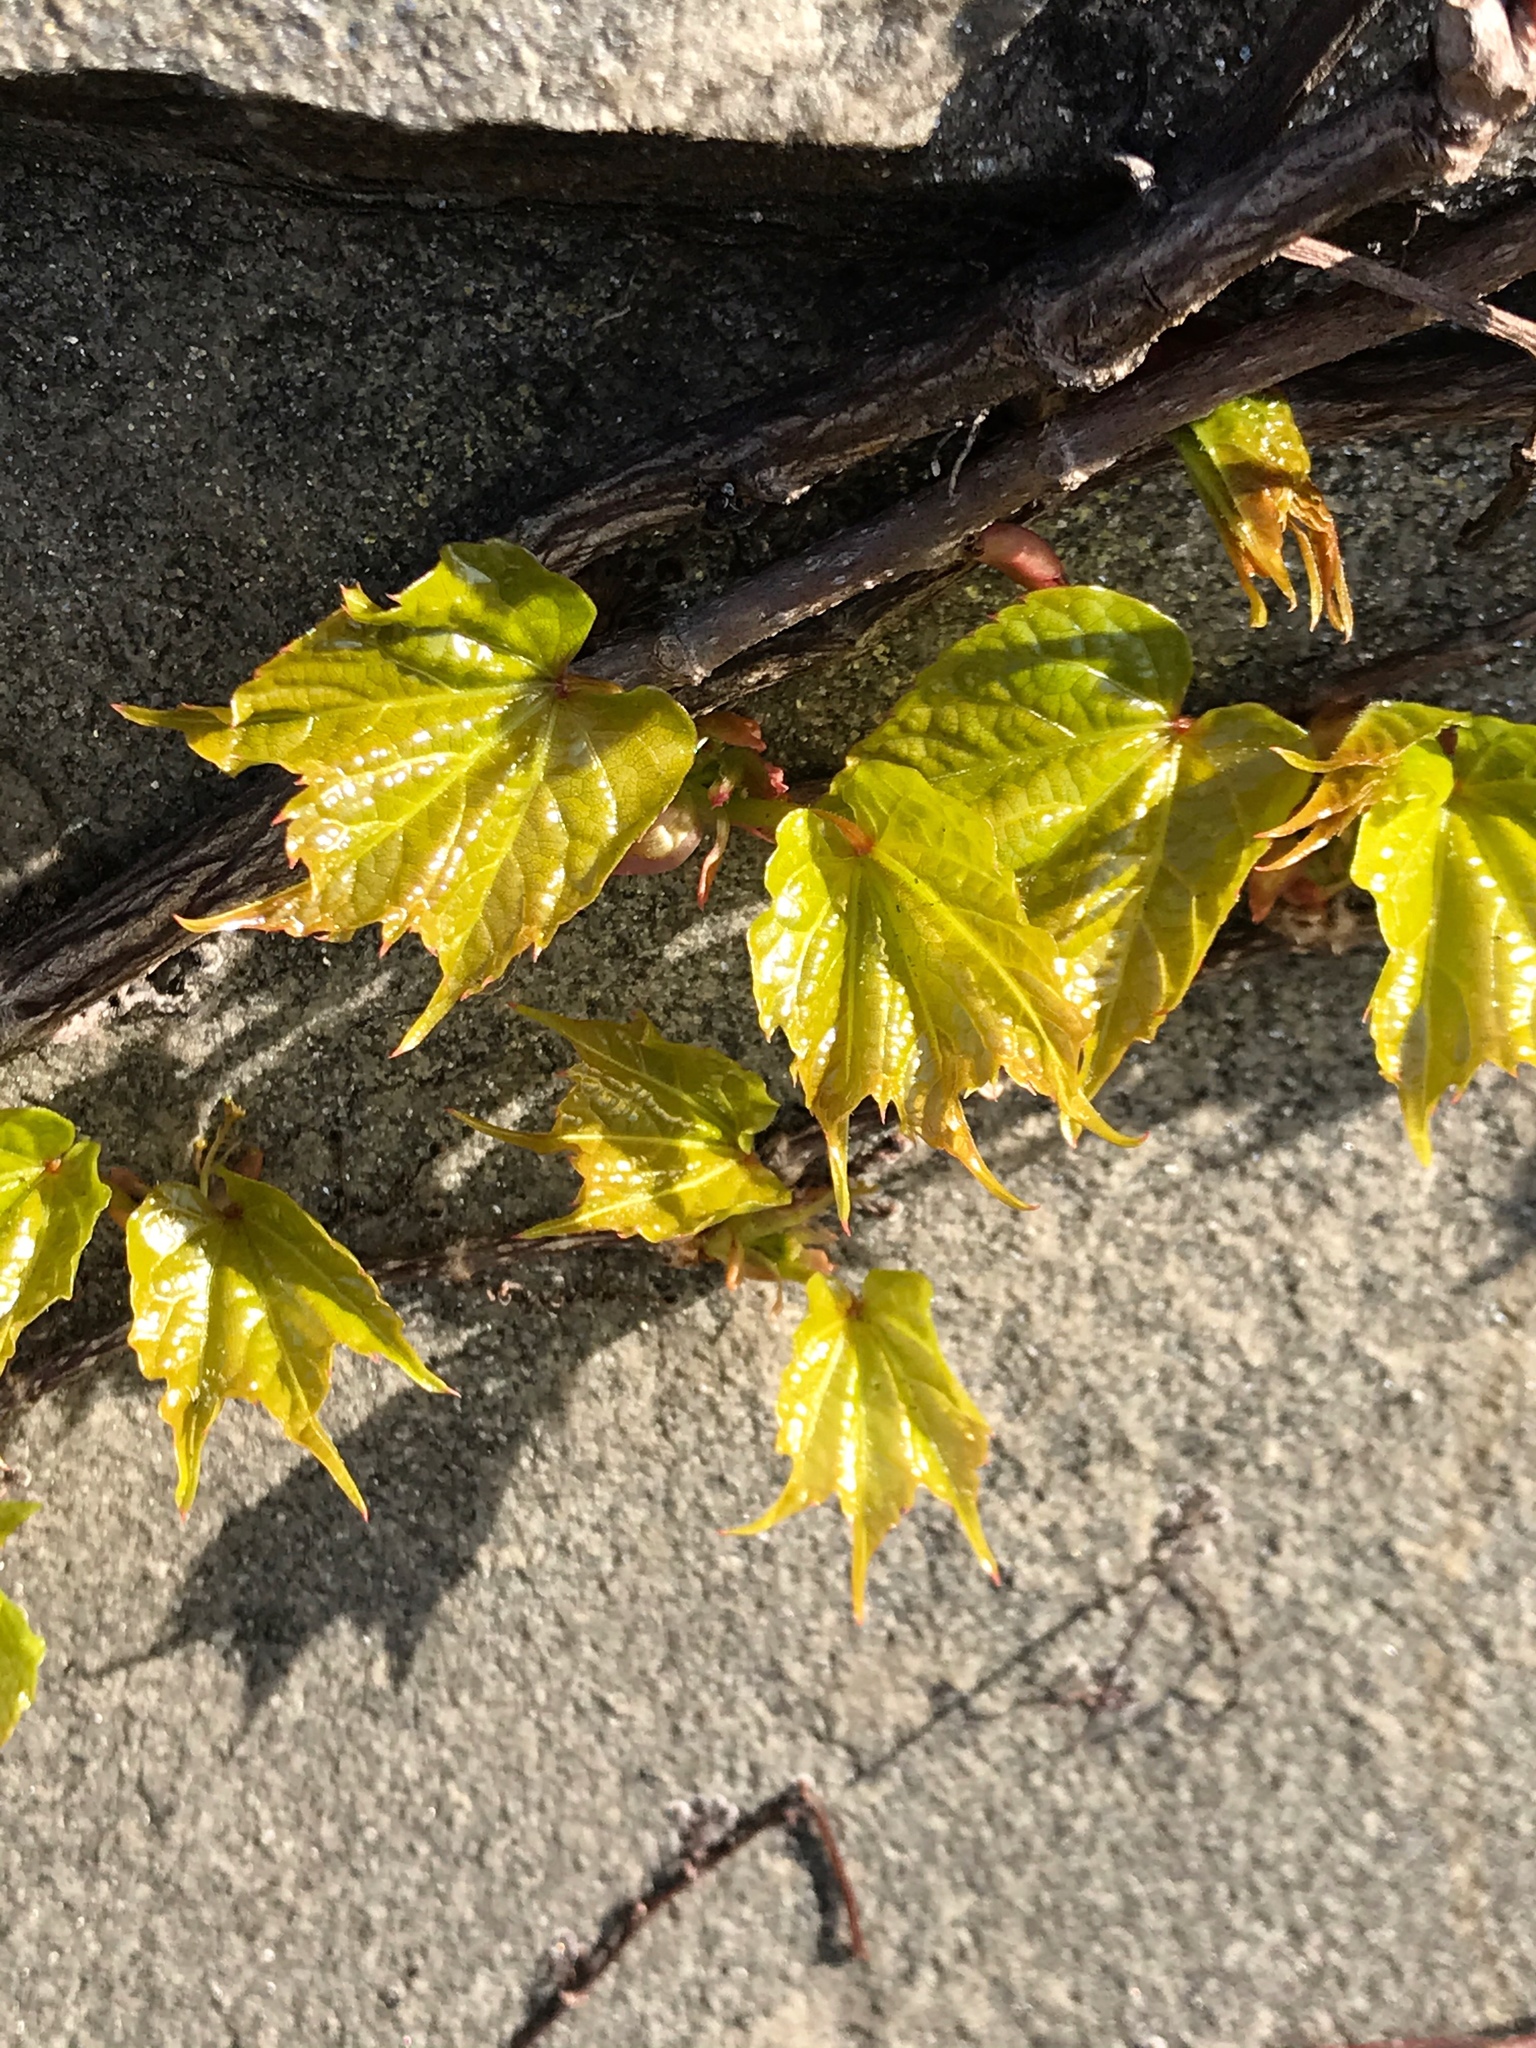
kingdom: Plantae
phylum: Tracheophyta
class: Magnoliopsida
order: Vitales
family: Vitaceae
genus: Parthenocissus
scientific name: Parthenocissus tricuspidata
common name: Boston ivy
